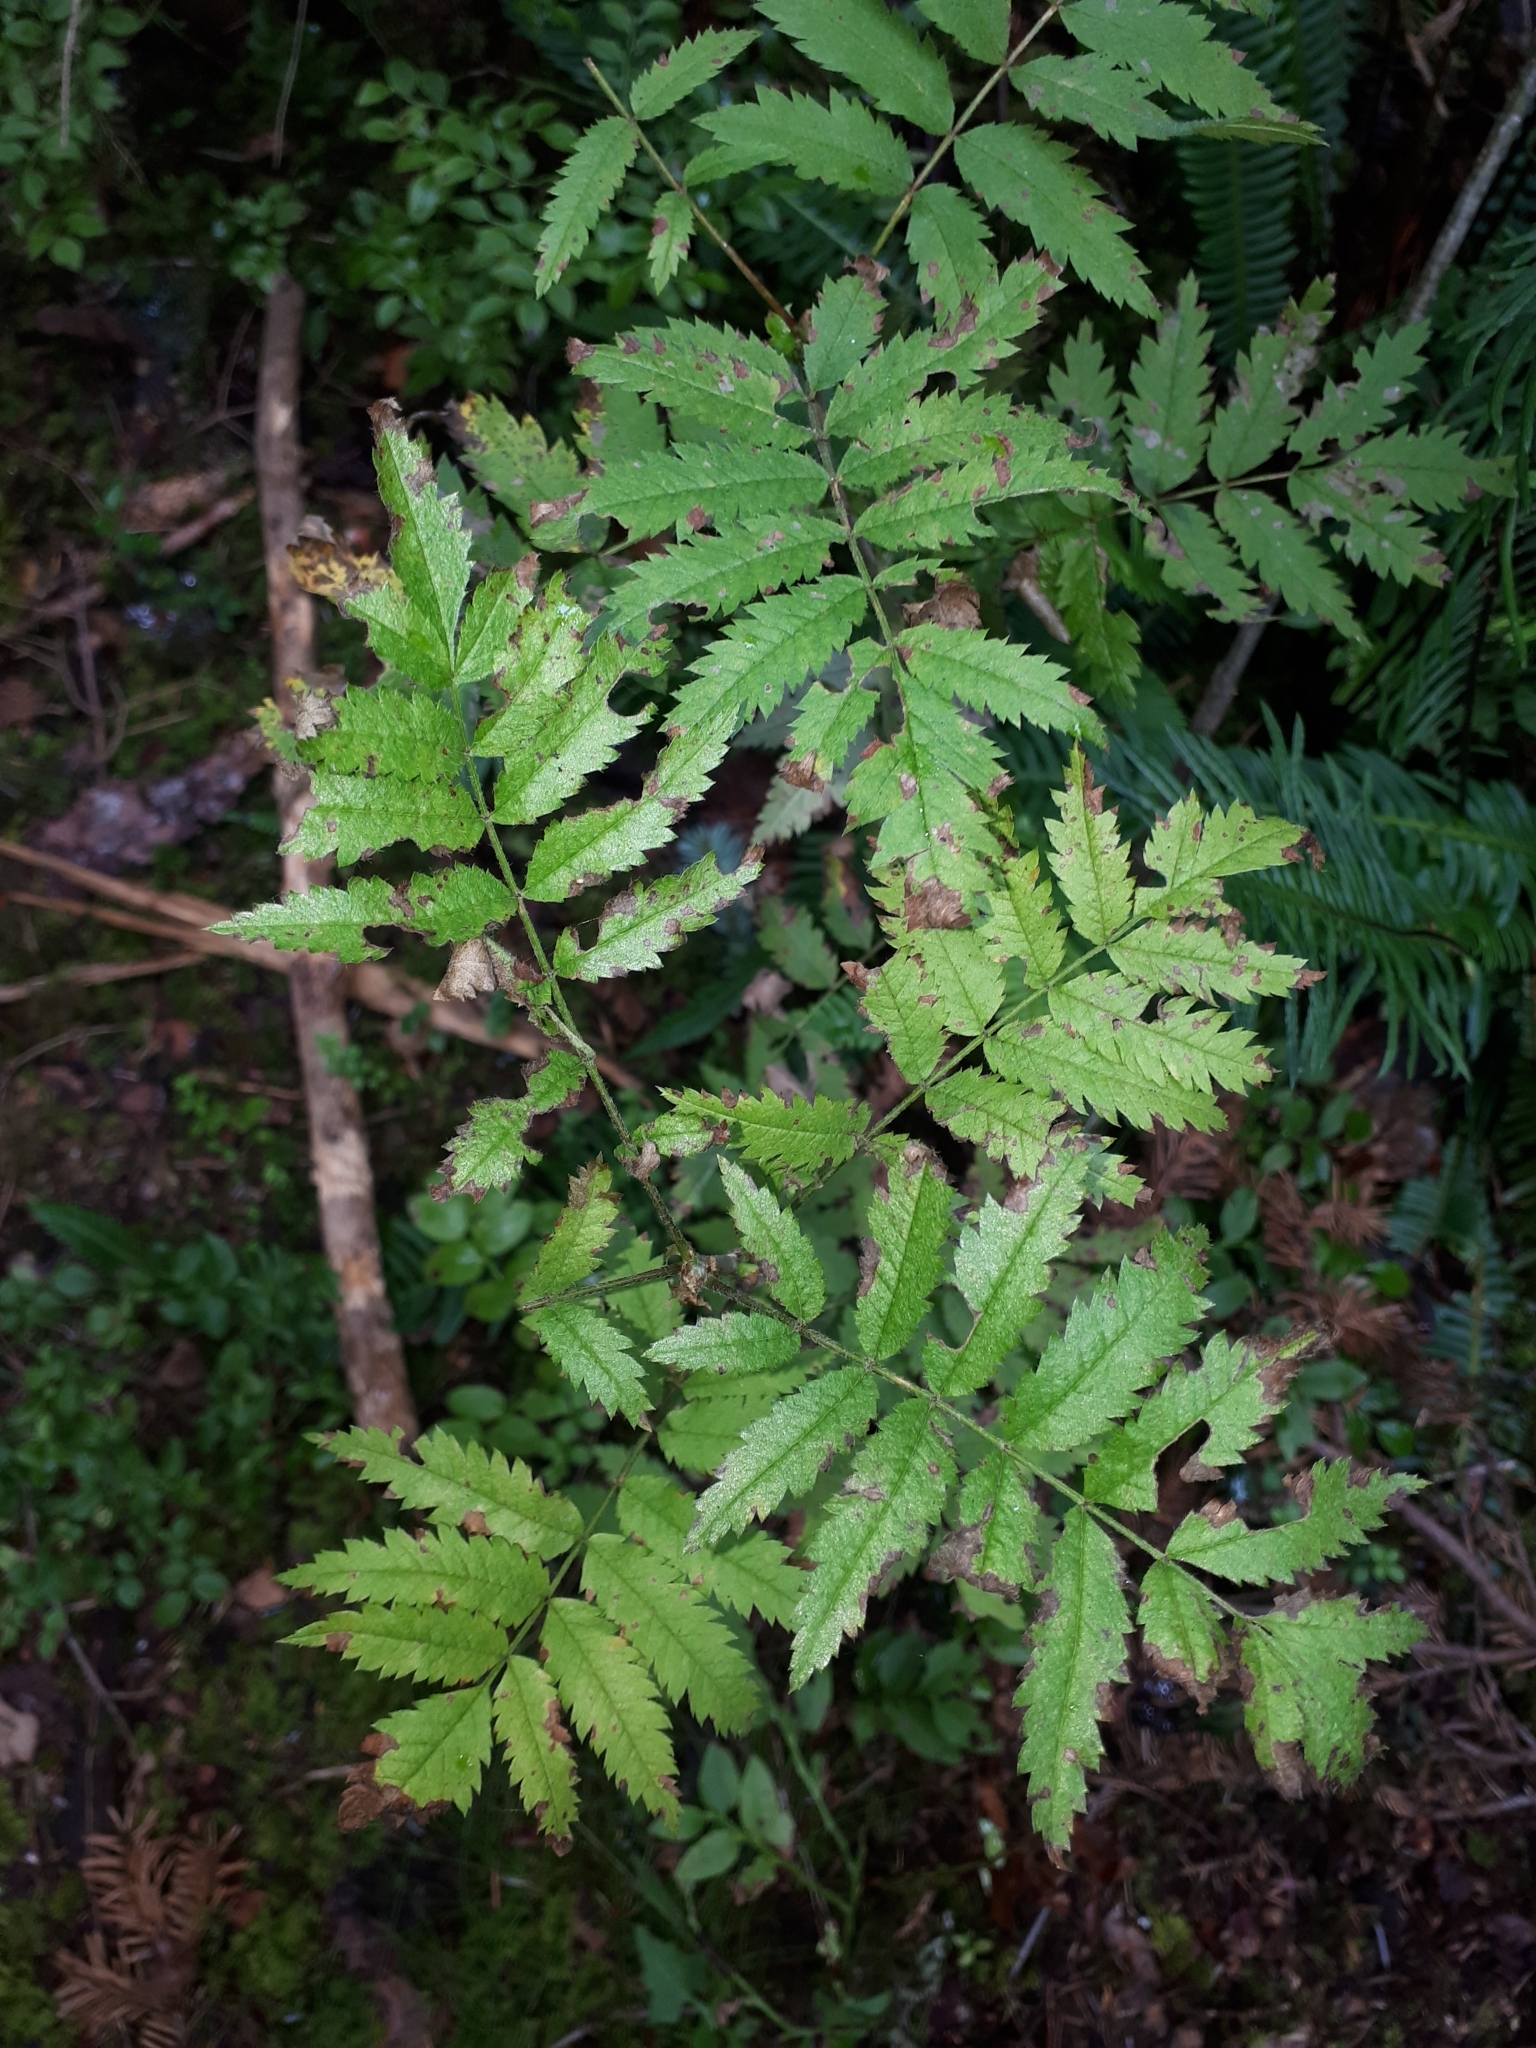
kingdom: Plantae
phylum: Tracheophyta
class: Magnoliopsida
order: Rosales
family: Rosaceae
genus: Sorbus
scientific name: Sorbus aucuparia
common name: Rowan
